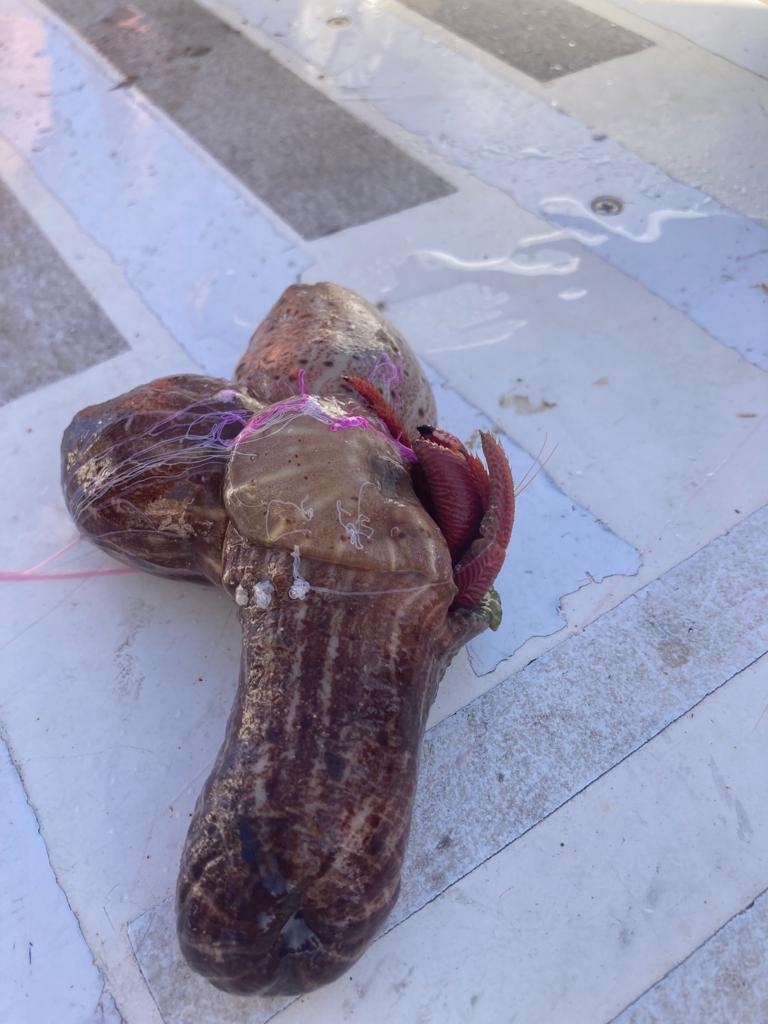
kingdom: Animalia
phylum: Cnidaria
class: Anthozoa
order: Actiniaria
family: Hormathiidae
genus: Calliactis
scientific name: Calliactis parasitica
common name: Parasitic anemone
